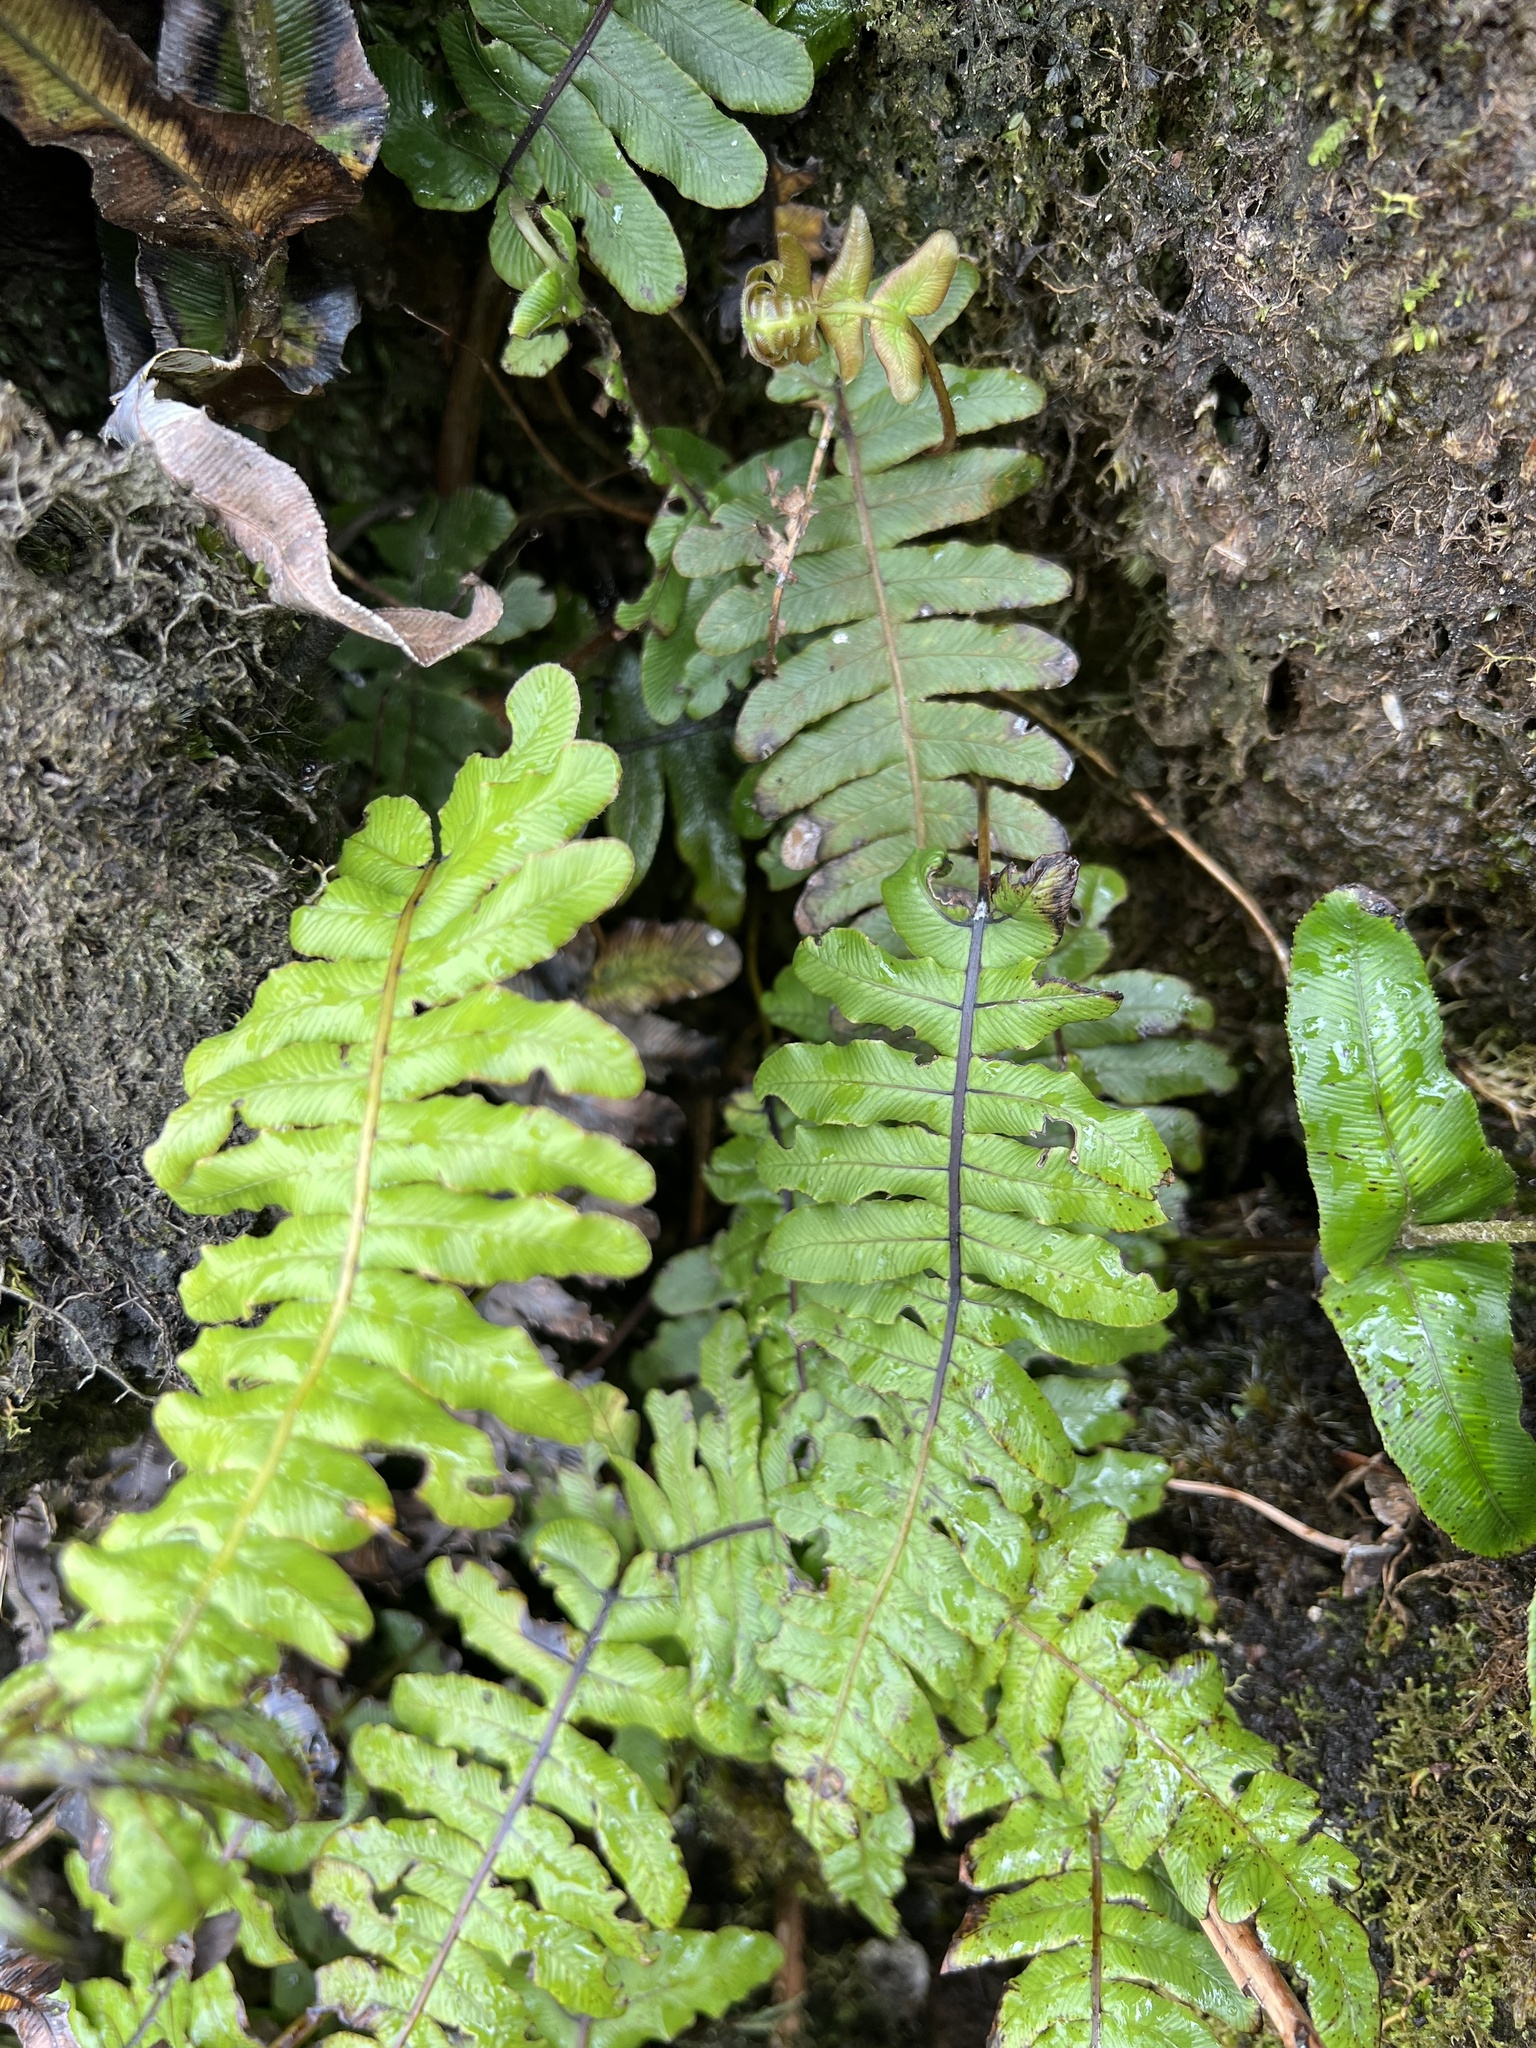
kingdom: Plantae
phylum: Tracheophyta
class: Polypodiopsida
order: Polypodiales
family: Blechnaceae
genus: Cranfillia
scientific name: Cranfillia deltoides
